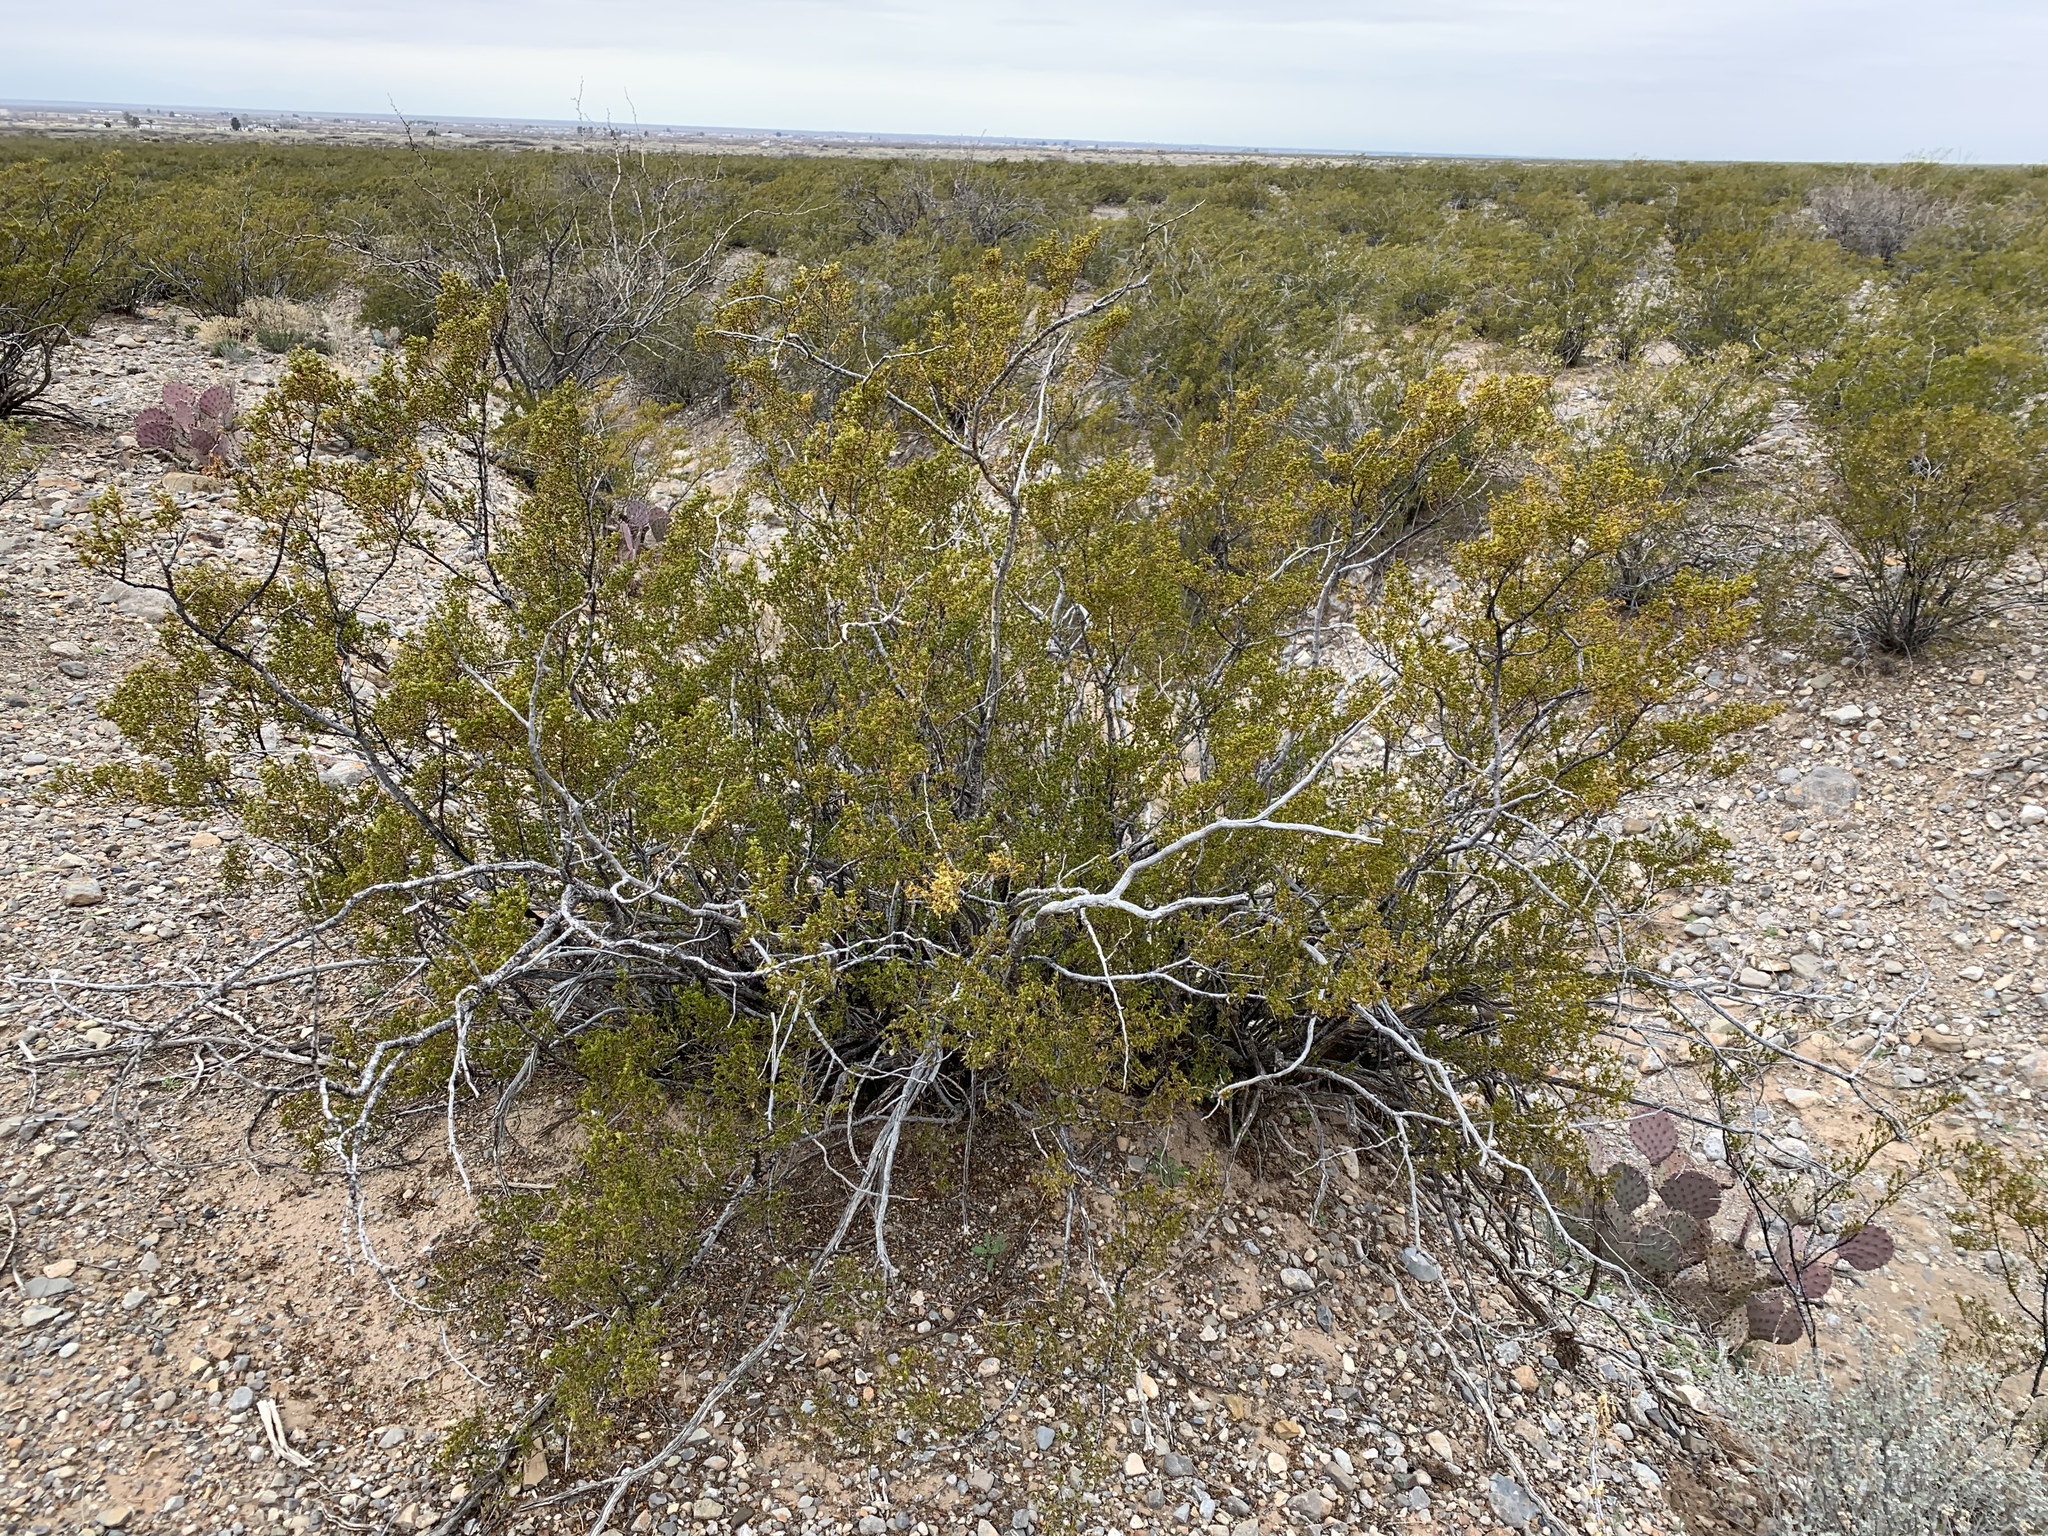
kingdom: Plantae
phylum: Tracheophyta
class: Magnoliopsida
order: Zygophyllales
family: Zygophyllaceae
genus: Larrea
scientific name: Larrea tridentata
